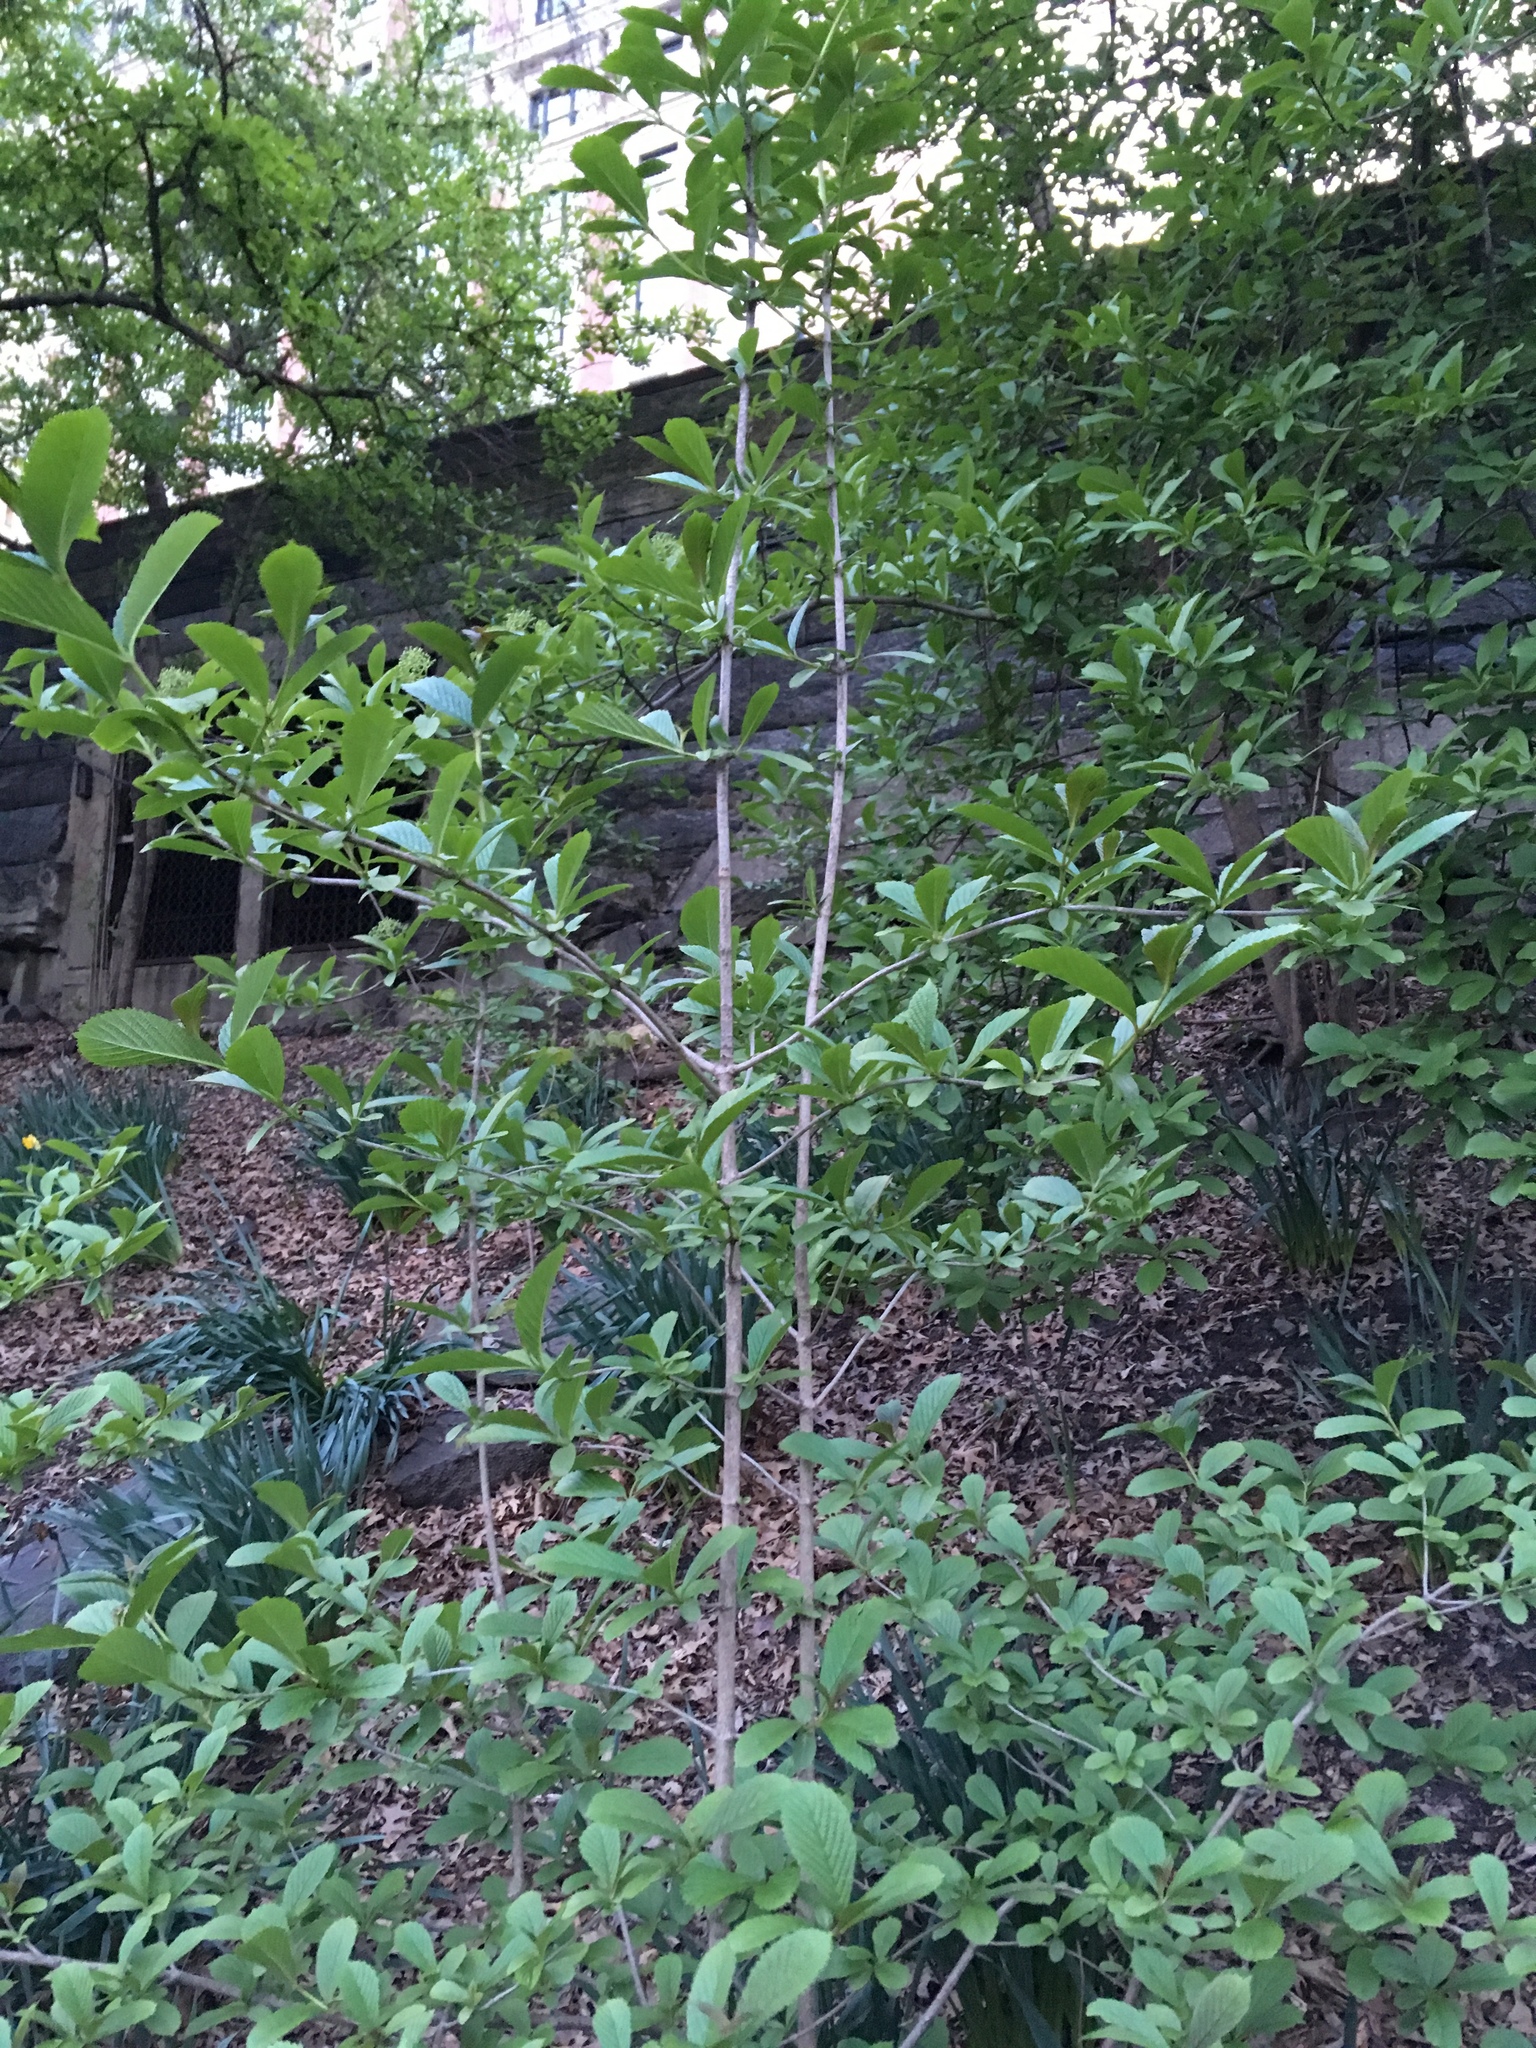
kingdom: Plantae
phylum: Tracheophyta
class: Magnoliopsida
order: Dipsacales
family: Viburnaceae
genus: Viburnum
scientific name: Viburnum sieboldii
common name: Siebold's arrowwood
